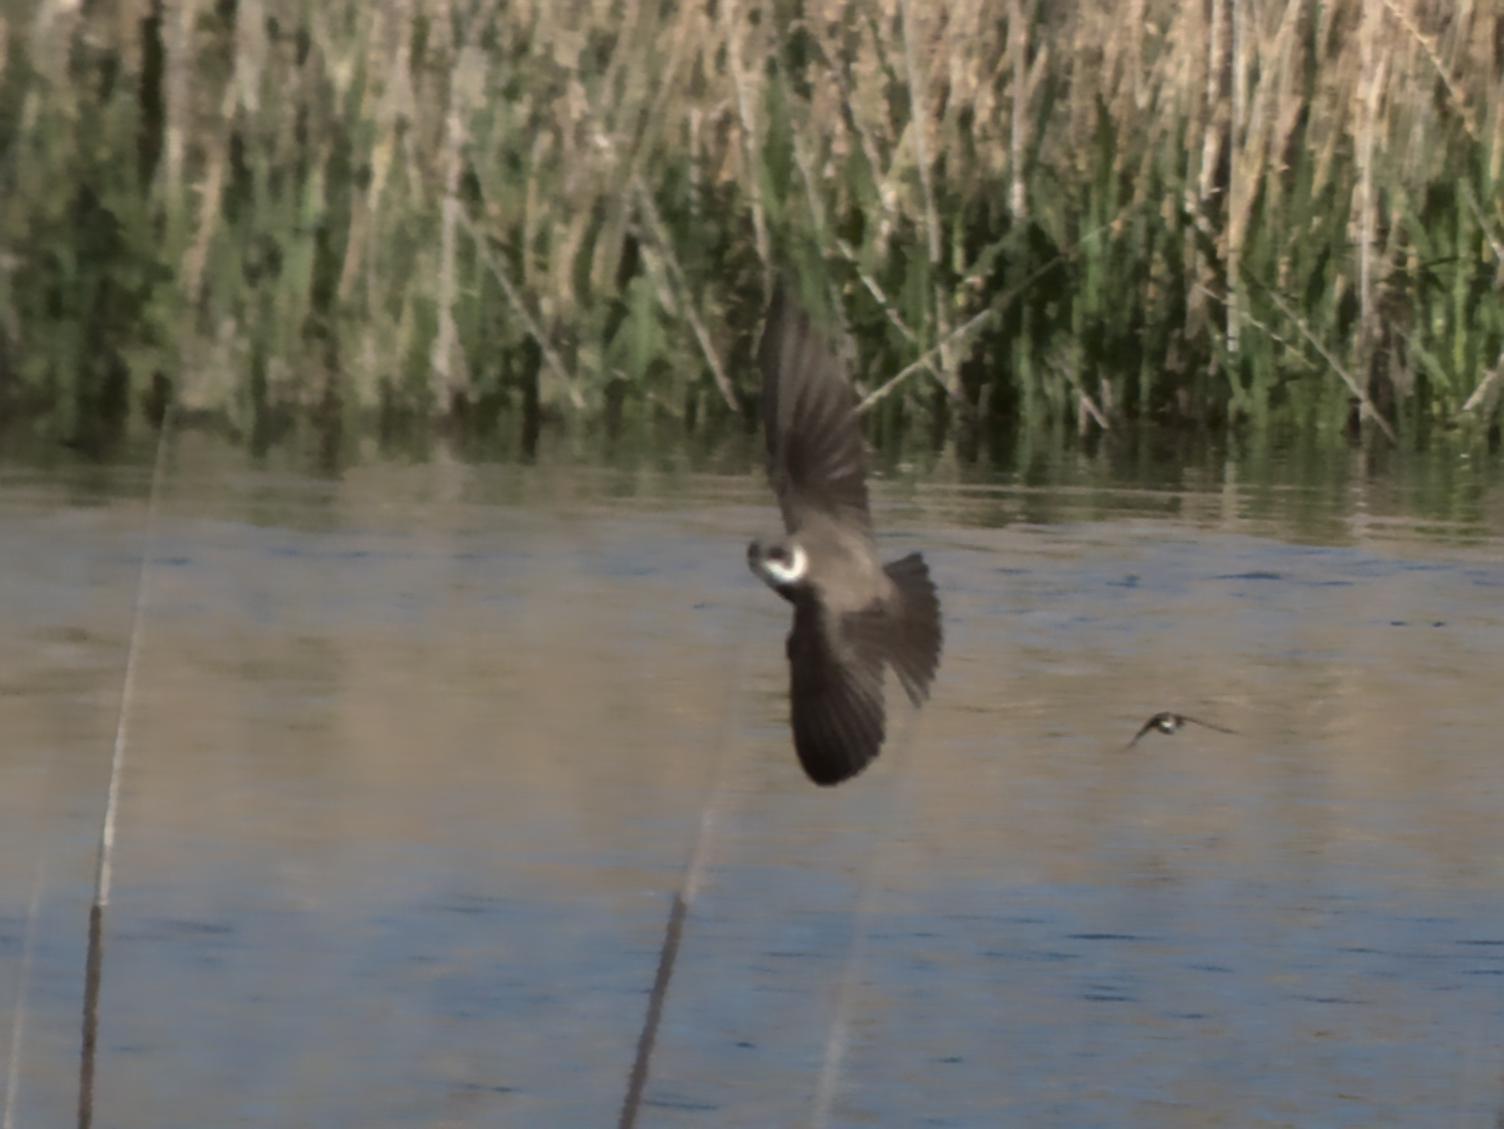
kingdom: Animalia
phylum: Chordata
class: Aves
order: Passeriformes
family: Hirundinidae
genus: Riparia
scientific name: Riparia riparia
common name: Sand martin
